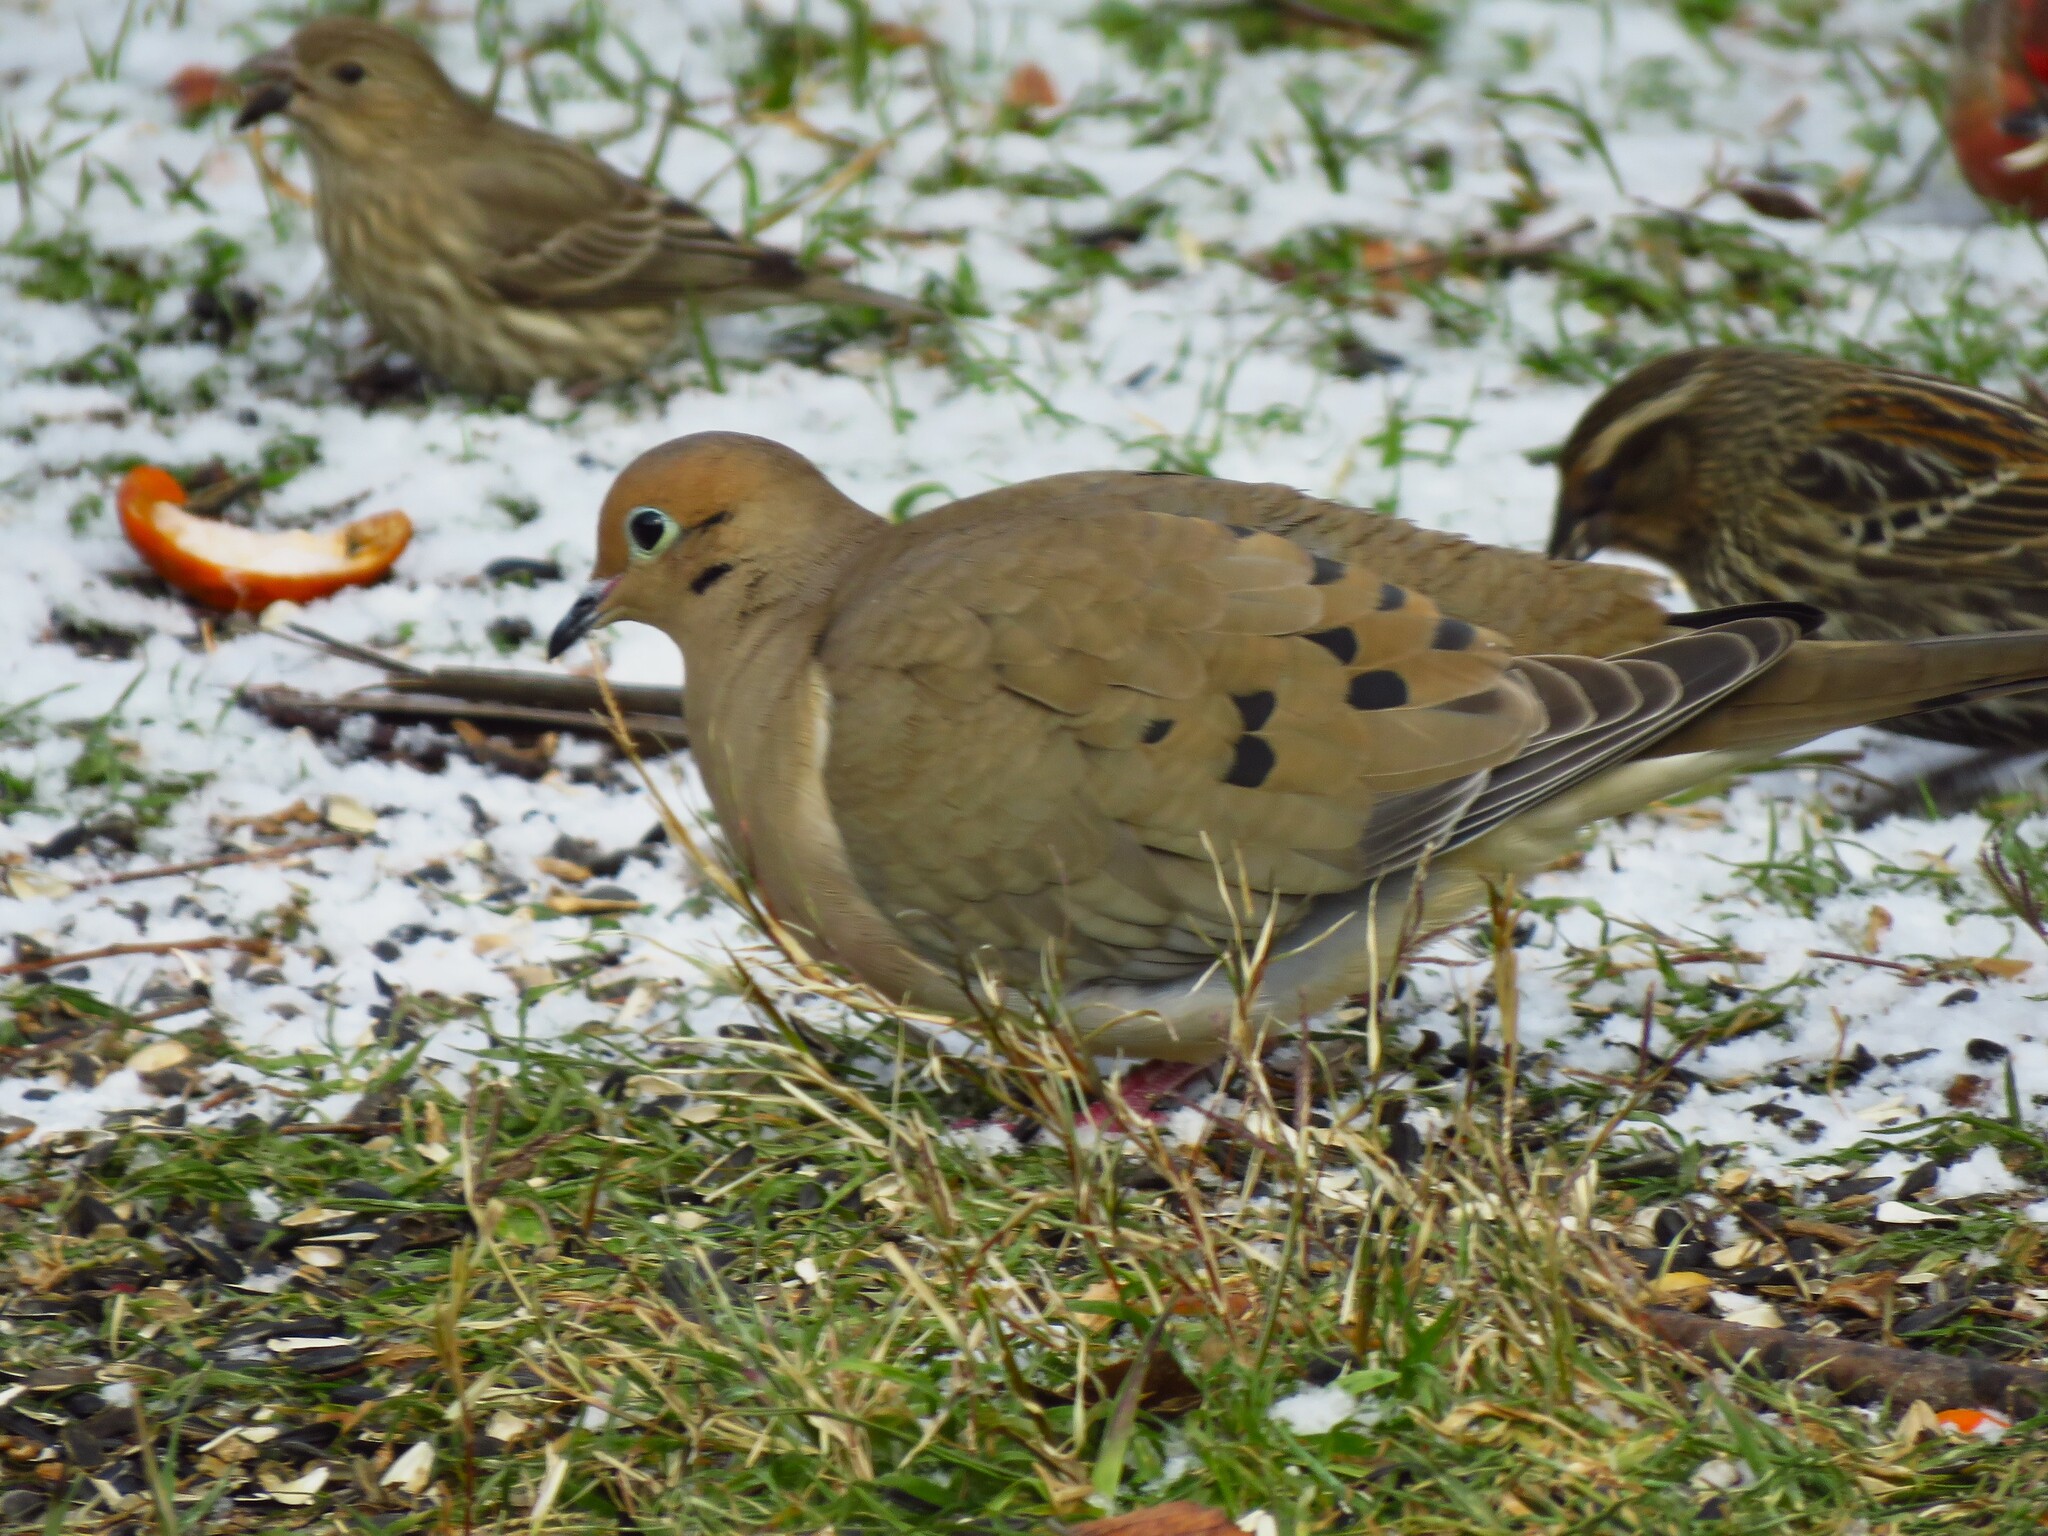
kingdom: Animalia
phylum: Chordata
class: Aves
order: Columbiformes
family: Columbidae
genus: Zenaida
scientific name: Zenaida macroura
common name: Mourning dove
